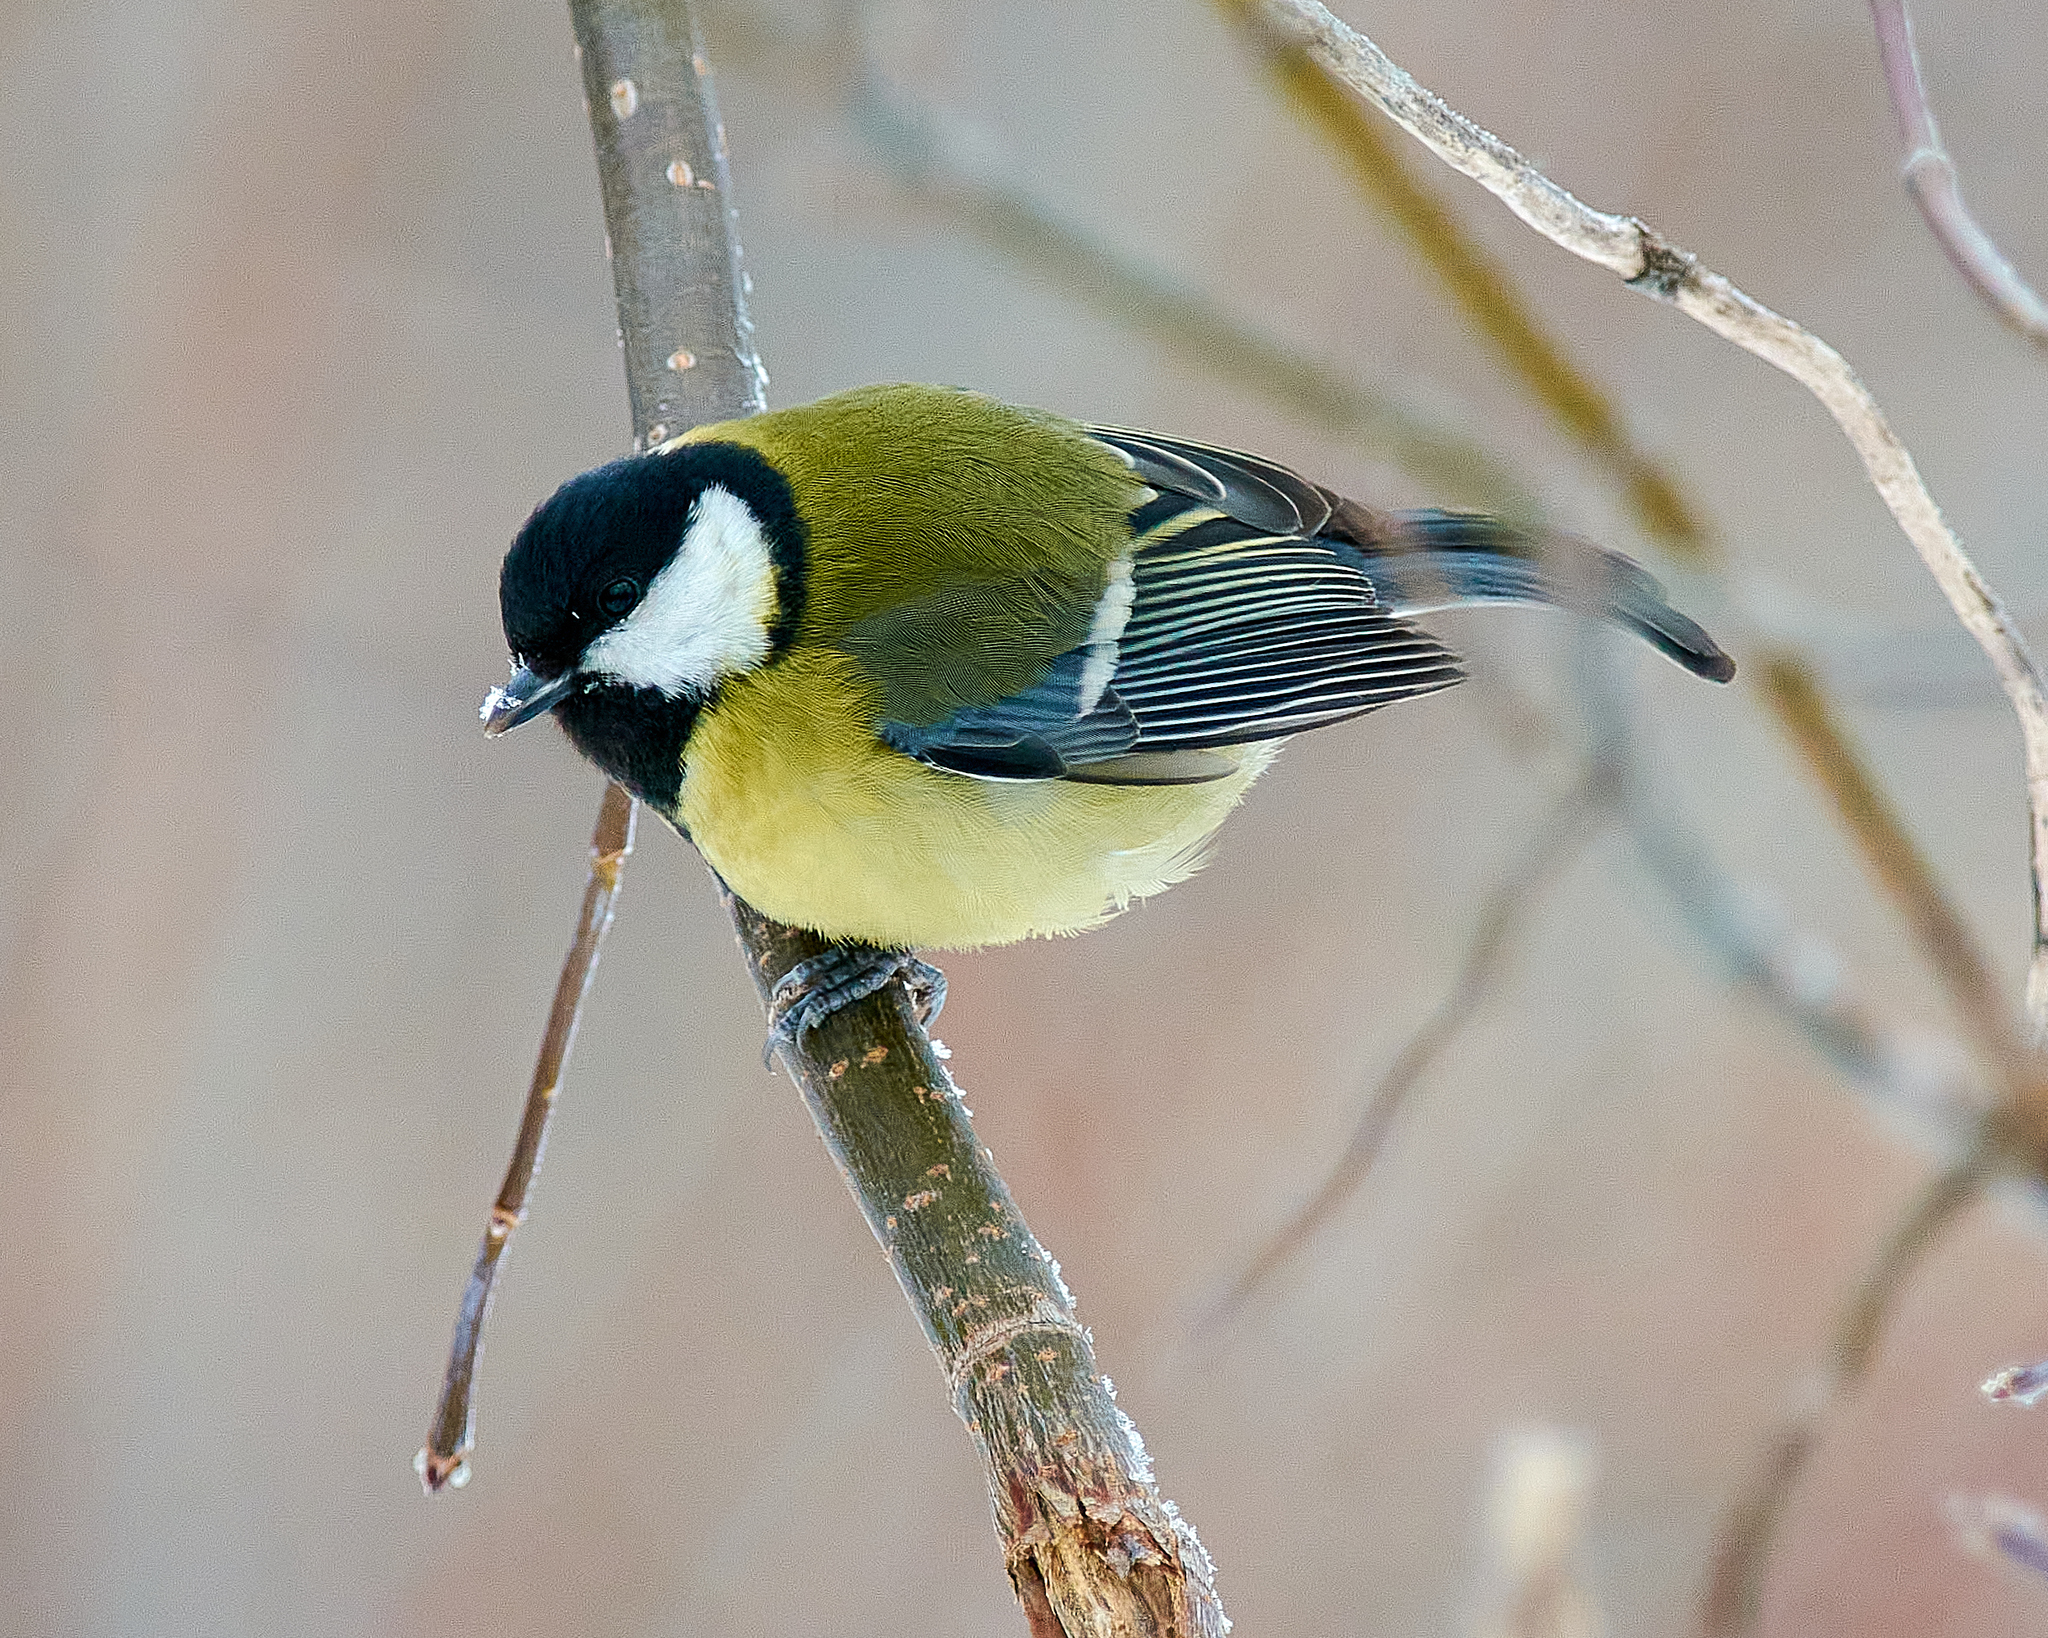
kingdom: Animalia
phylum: Chordata
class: Aves
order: Passeriformes
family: Paridae
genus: Parus
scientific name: Parus major
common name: Great tit
